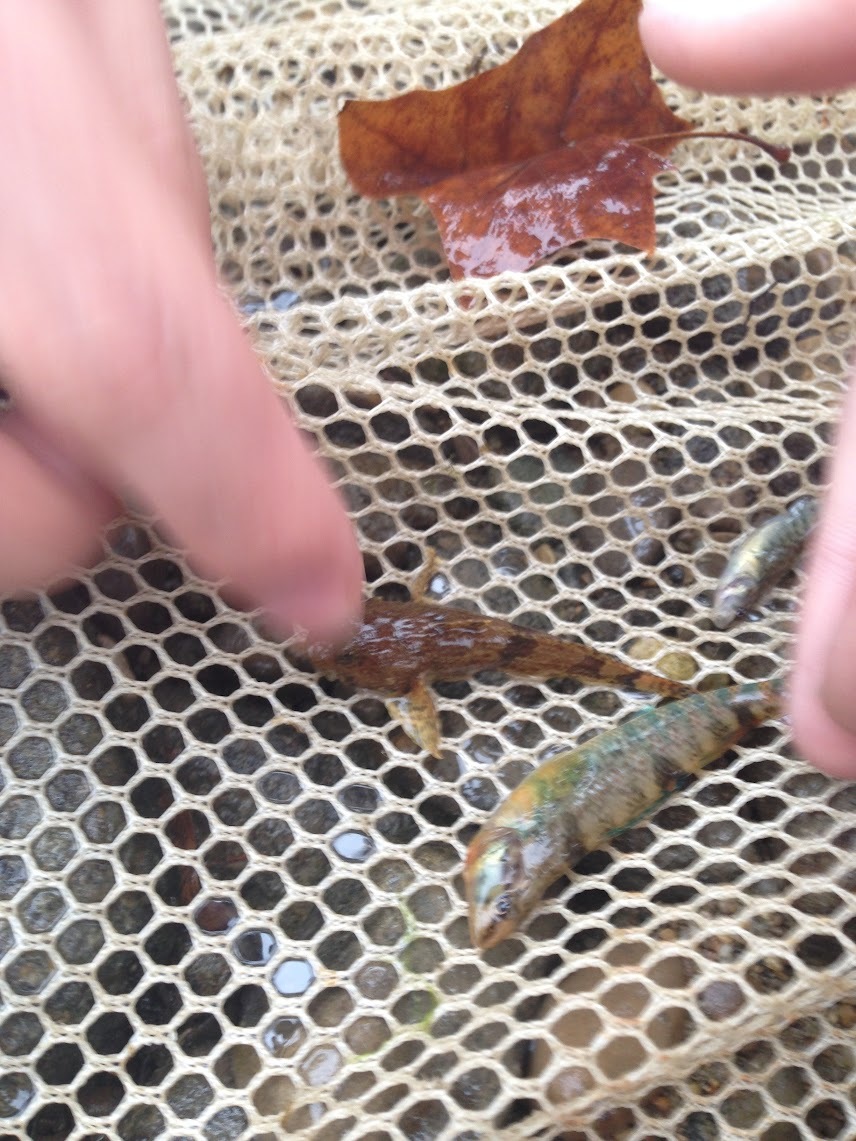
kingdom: Animalia
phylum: Chordata
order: Scorpaeniformes
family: Cottidae
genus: Cottus
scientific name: Cottus bairdii
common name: Mottled sculpin
